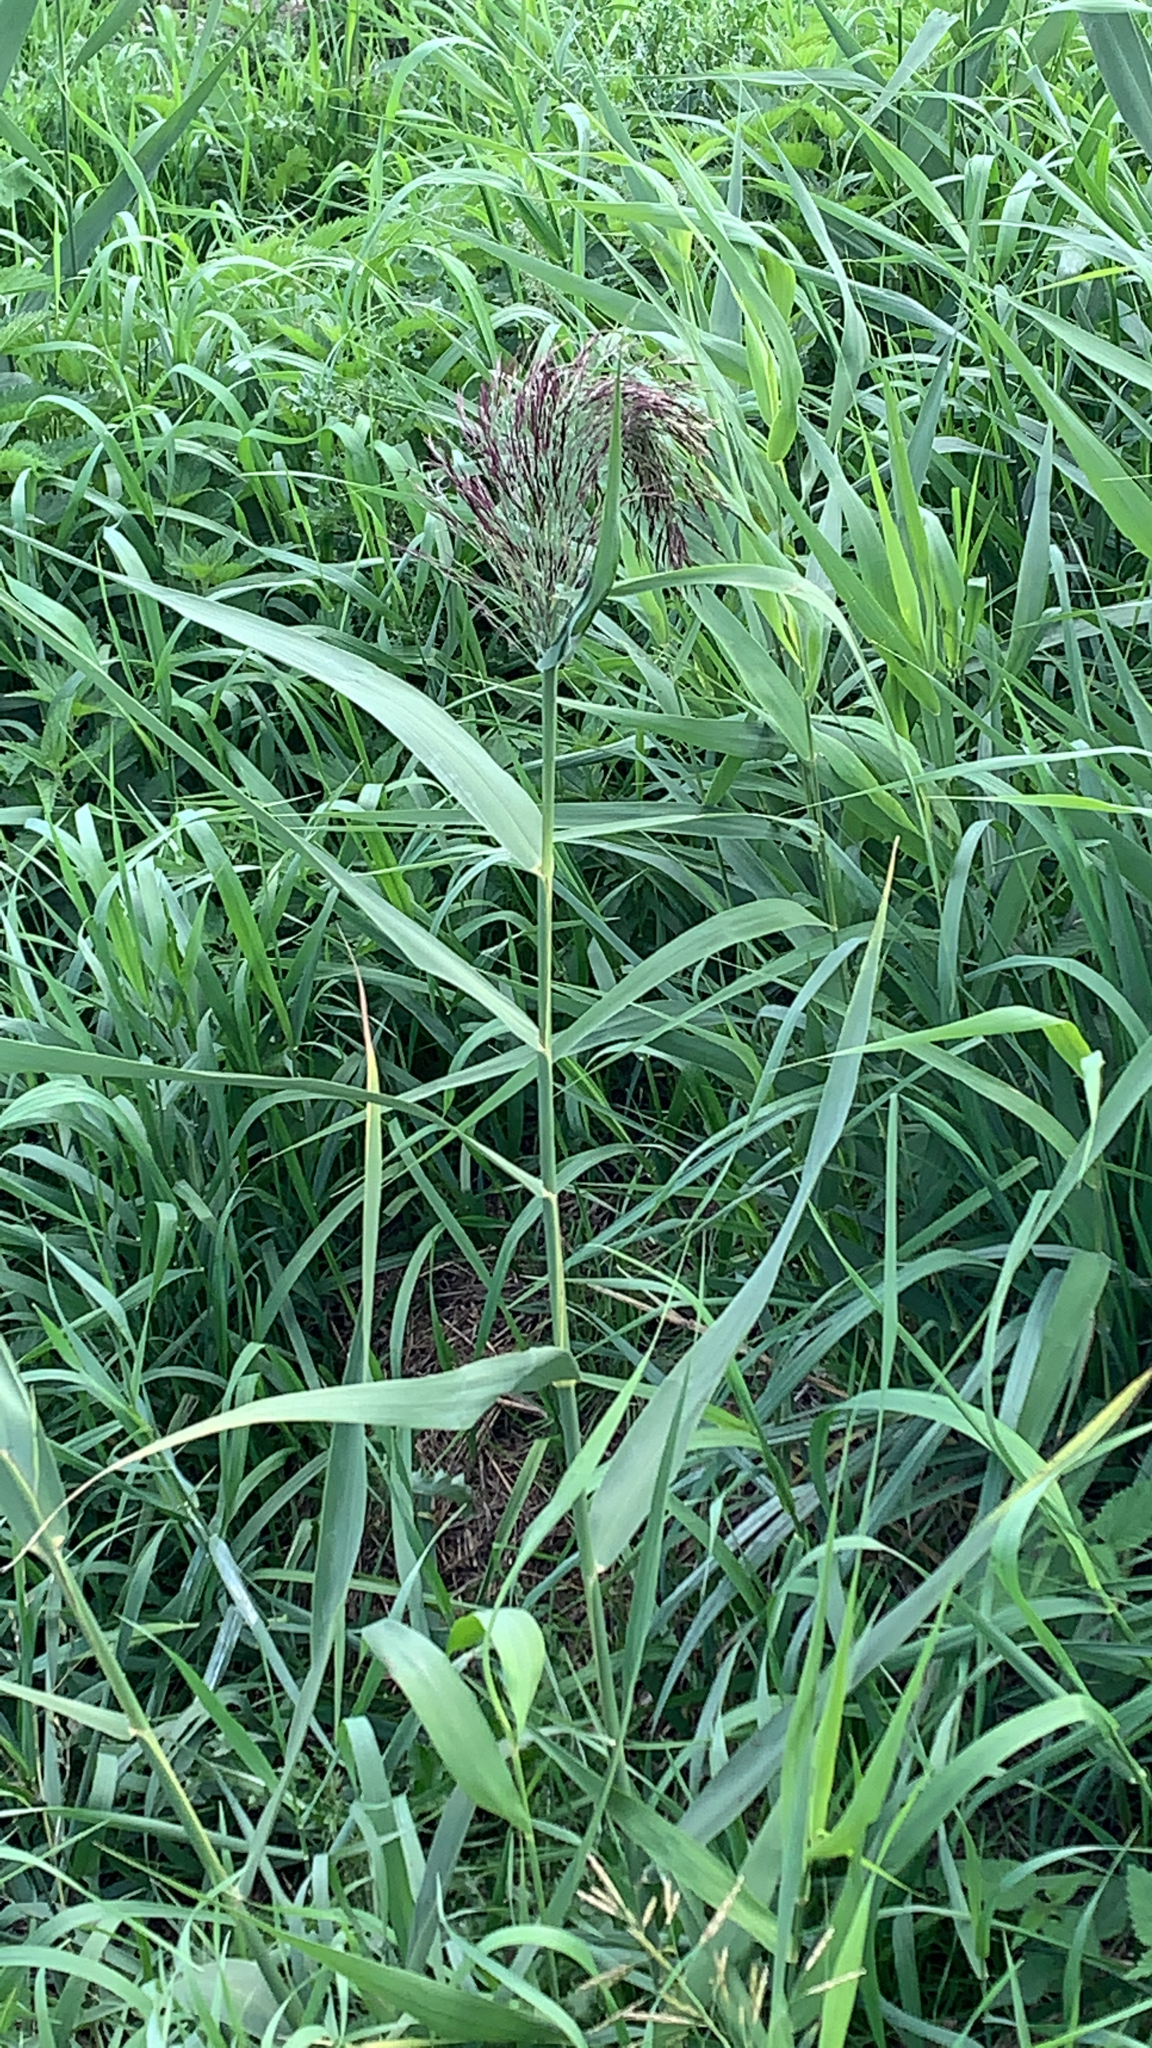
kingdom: Plantae
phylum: Tracheophyta
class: Liliopsida
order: Poales
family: Poaceae
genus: Phragmites
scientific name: Phragmites australis
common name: Common reed
